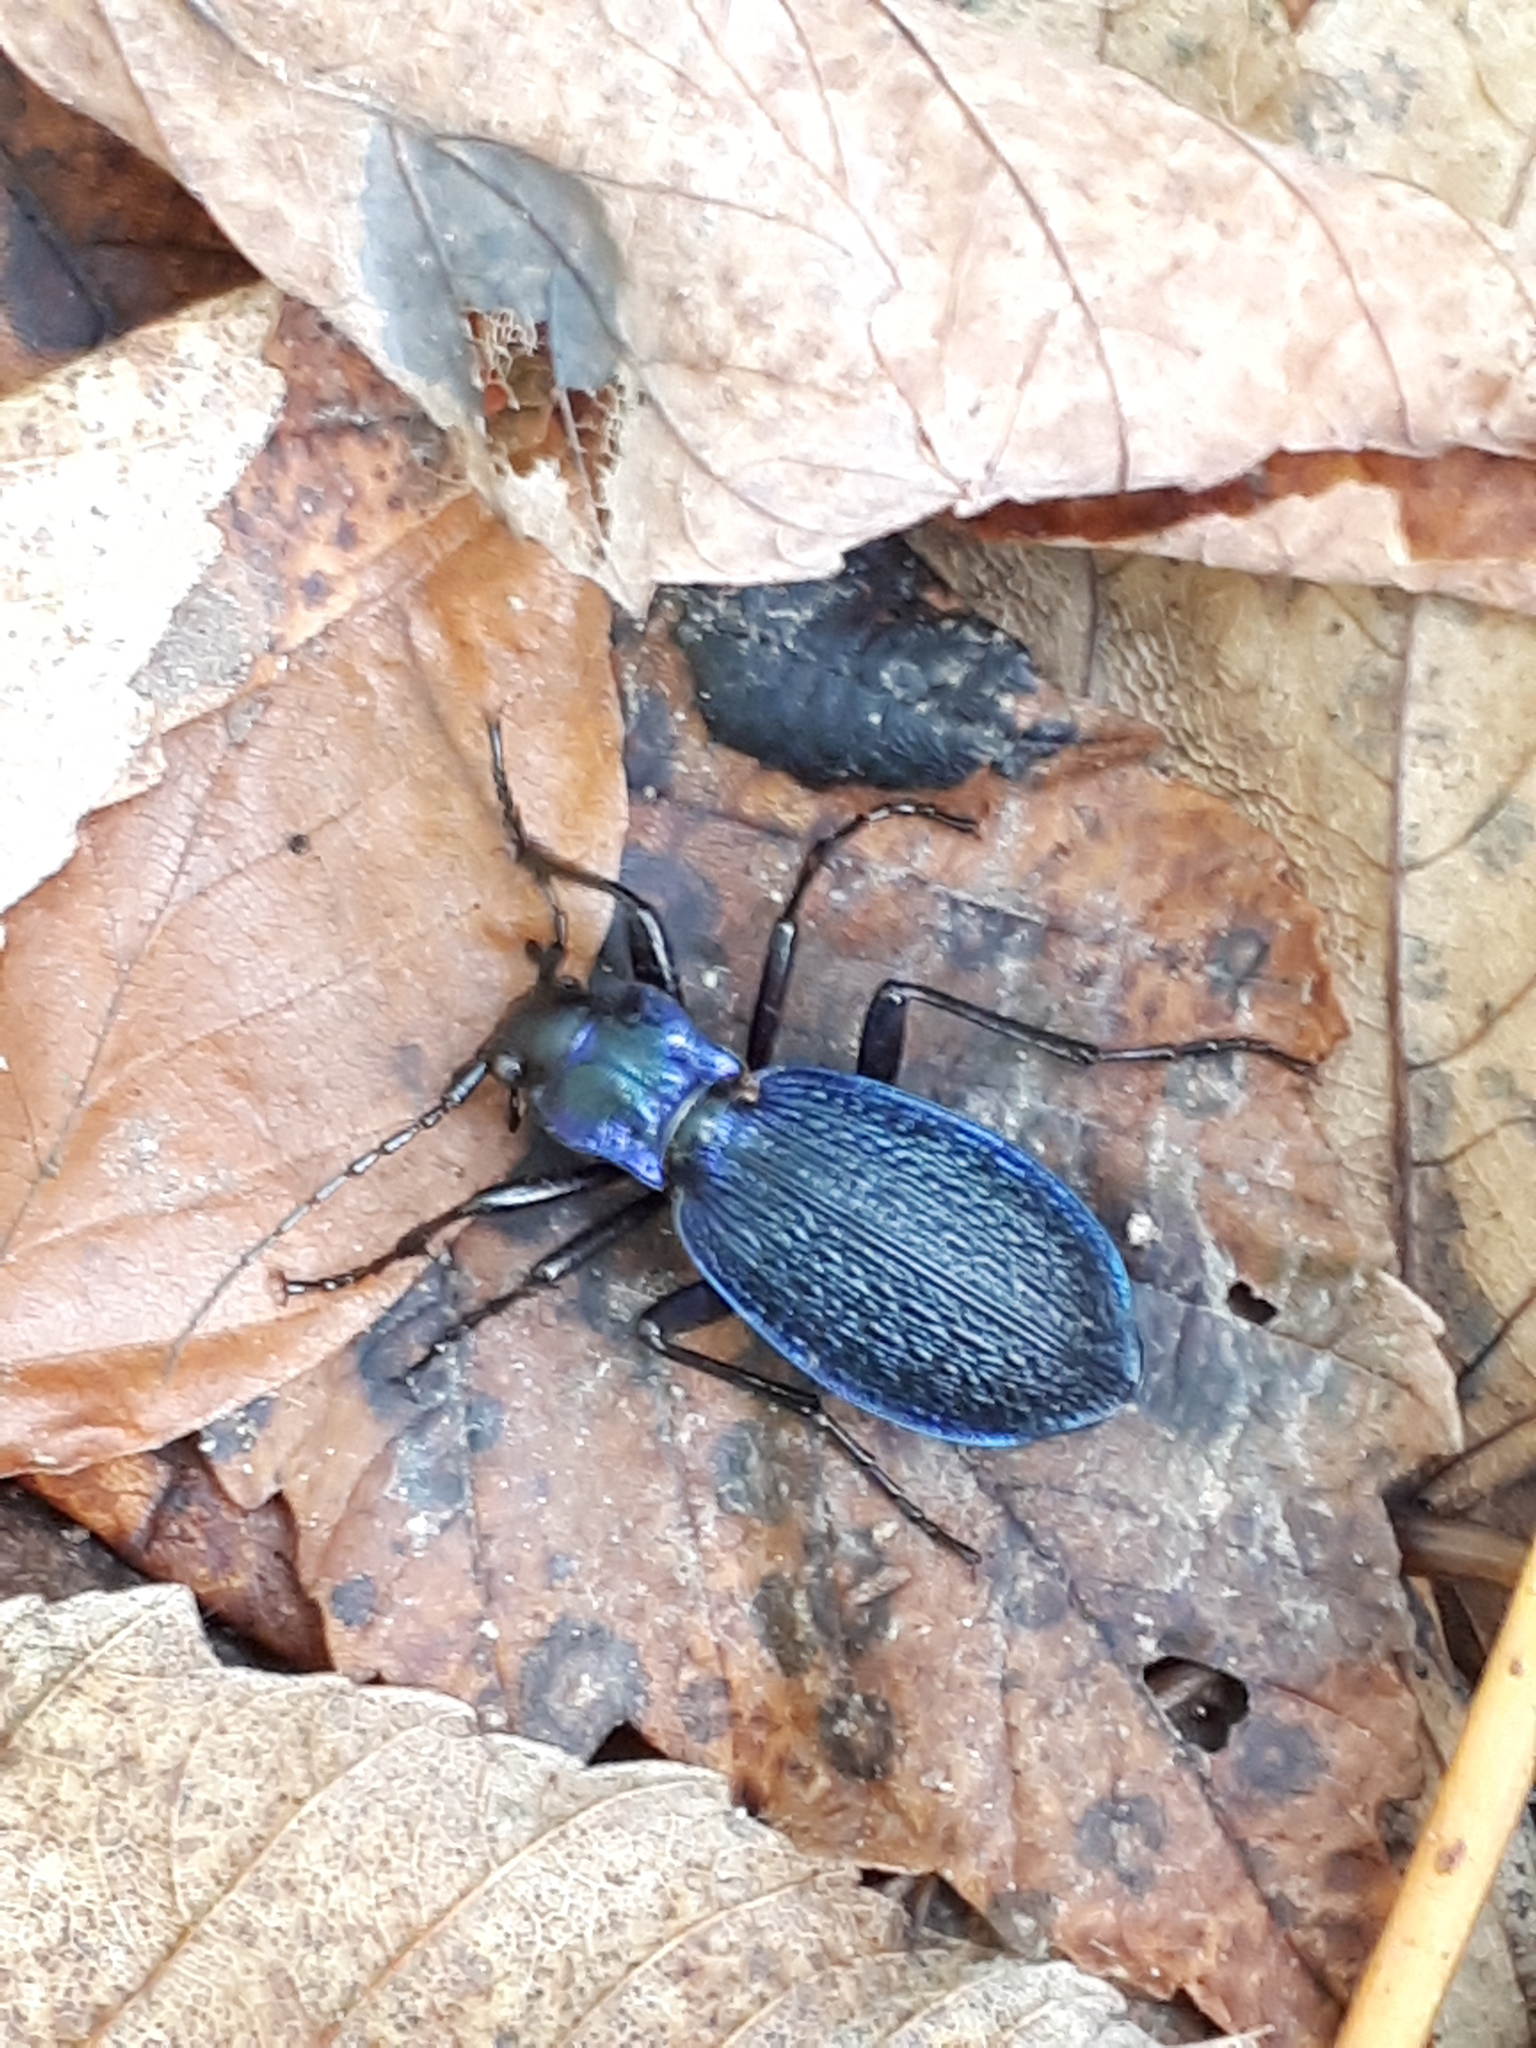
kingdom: Animalia
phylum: Arthropoda
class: Insecta
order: Coleoptera
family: Carabidae
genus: Carabus
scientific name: Carabus intricatus
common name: Blue ground beetle
